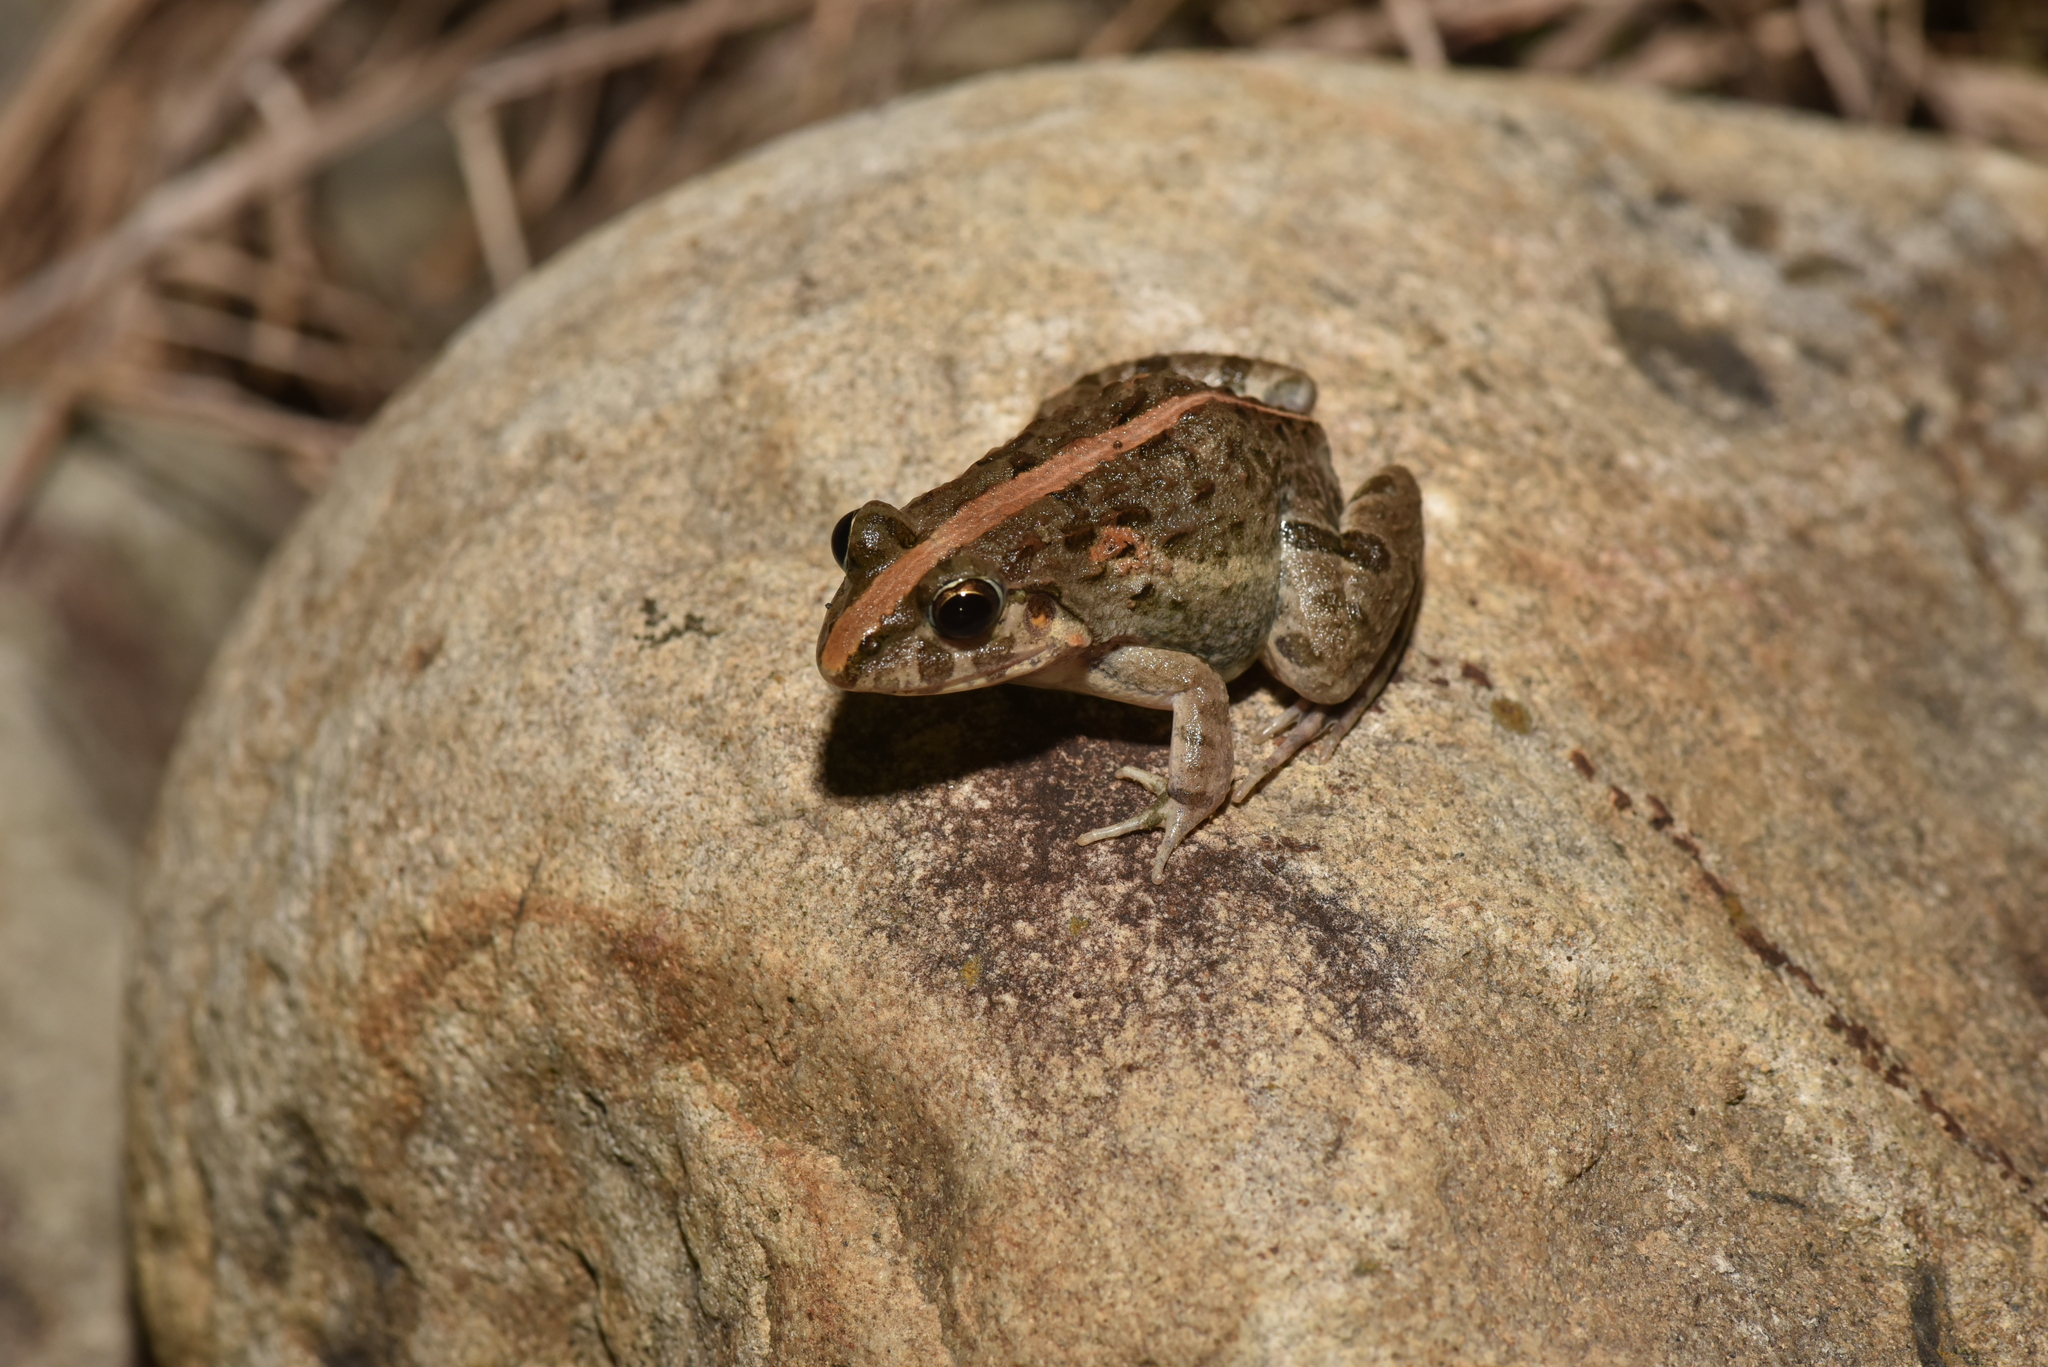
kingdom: Animalia
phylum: Chordata
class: Amphibia
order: Anura
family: Dicroglossidae
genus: Fejervarya
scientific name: Fejervarya limnocharis
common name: Asian grass frog/common pond frog/field frog/grass frog/indian rice frog
